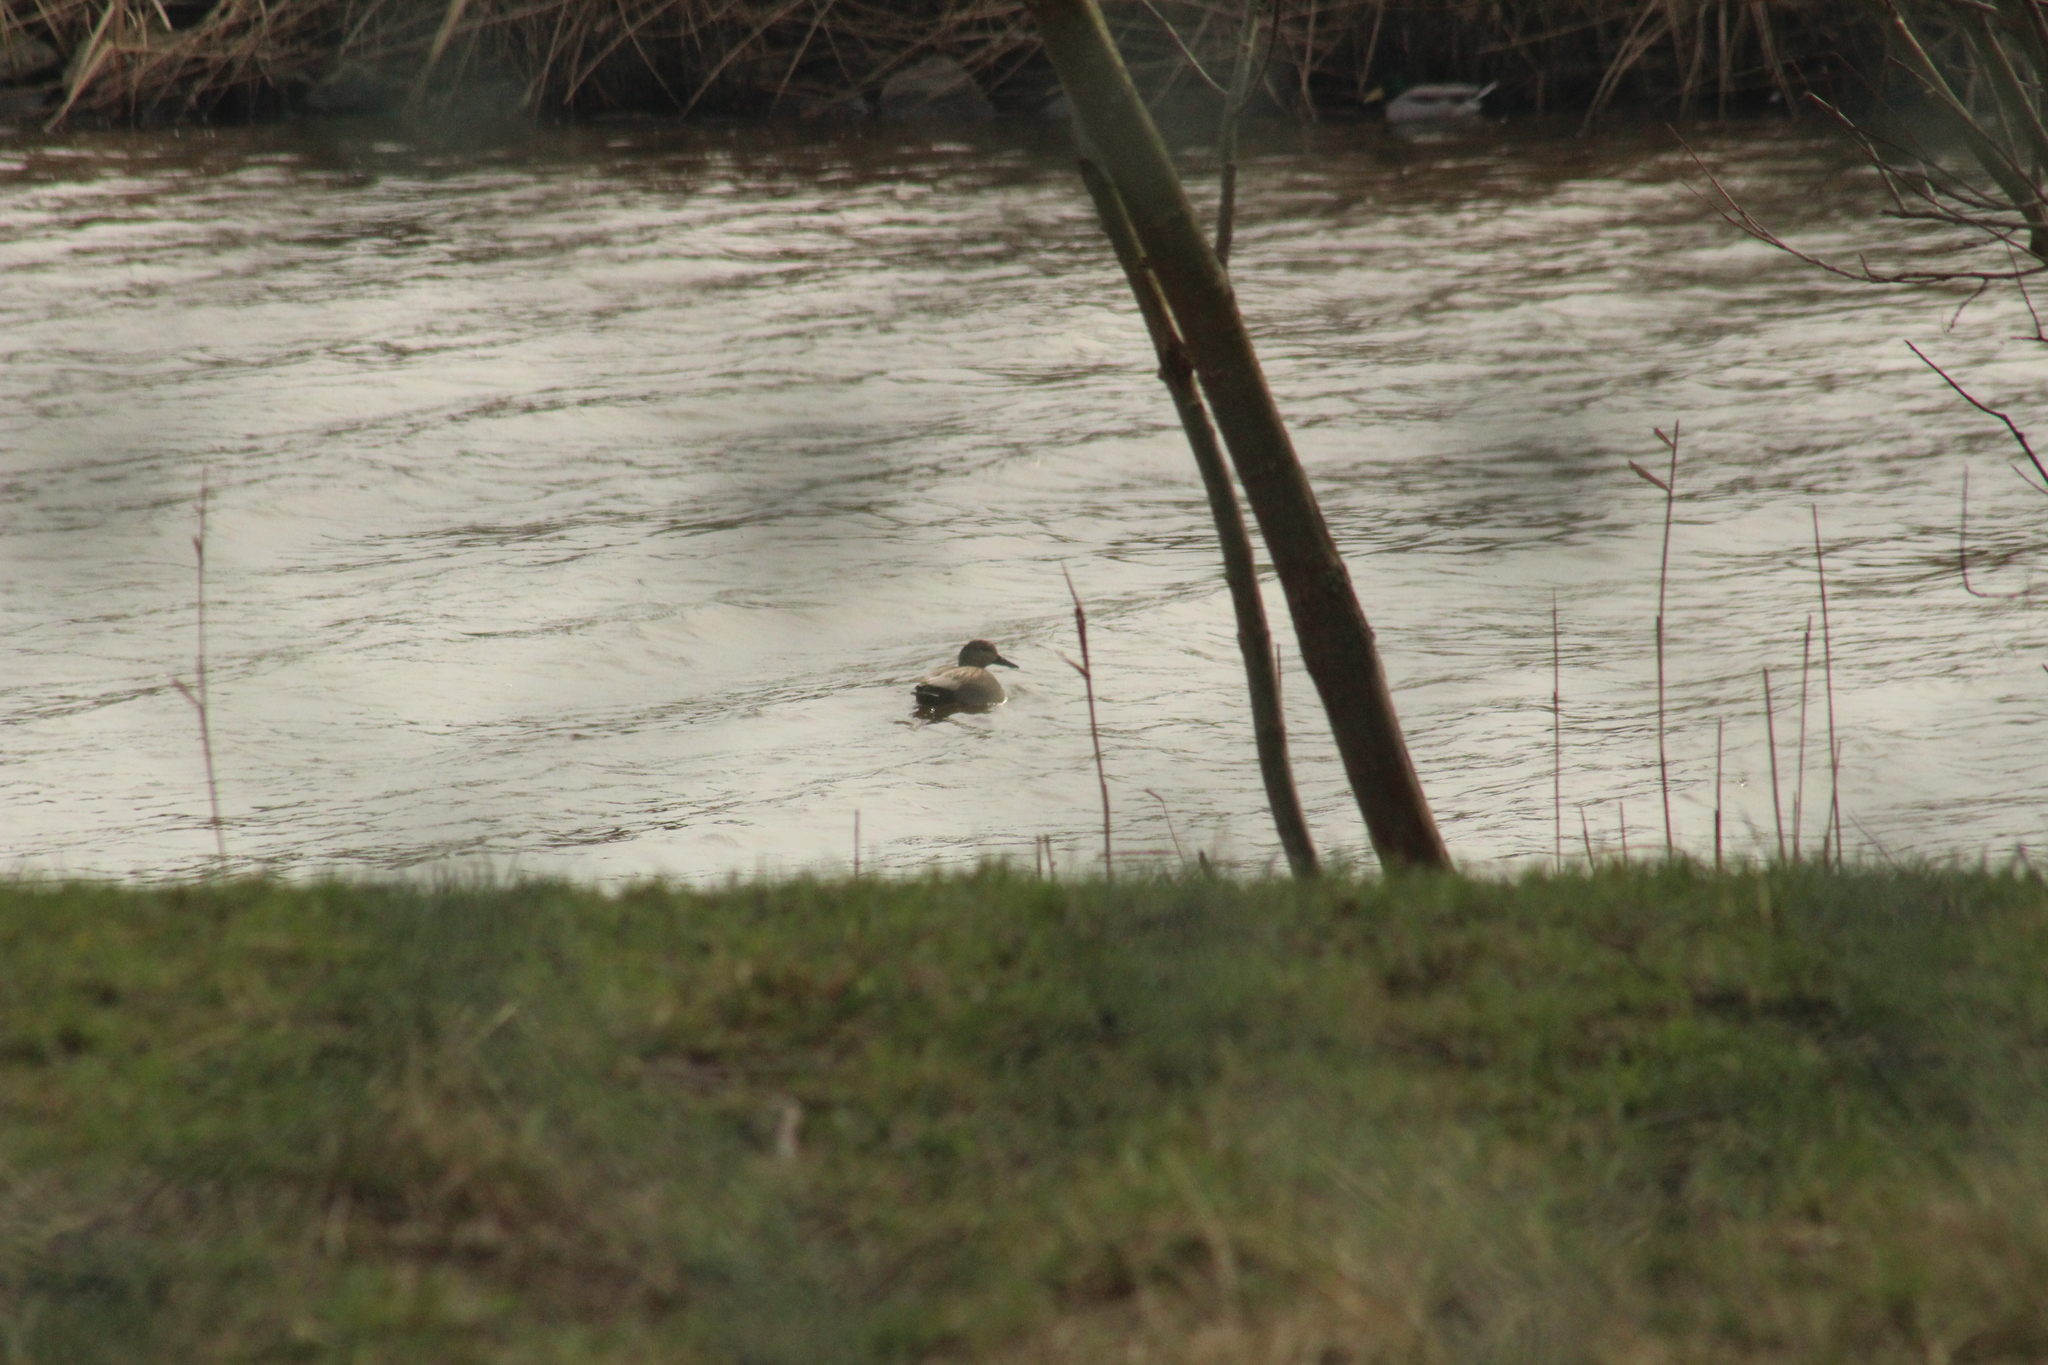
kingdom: Animalia
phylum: Chordata
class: Aves
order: Anseriformes
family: Anatidae
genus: Mareca
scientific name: Mareca strepera
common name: Gadwall
